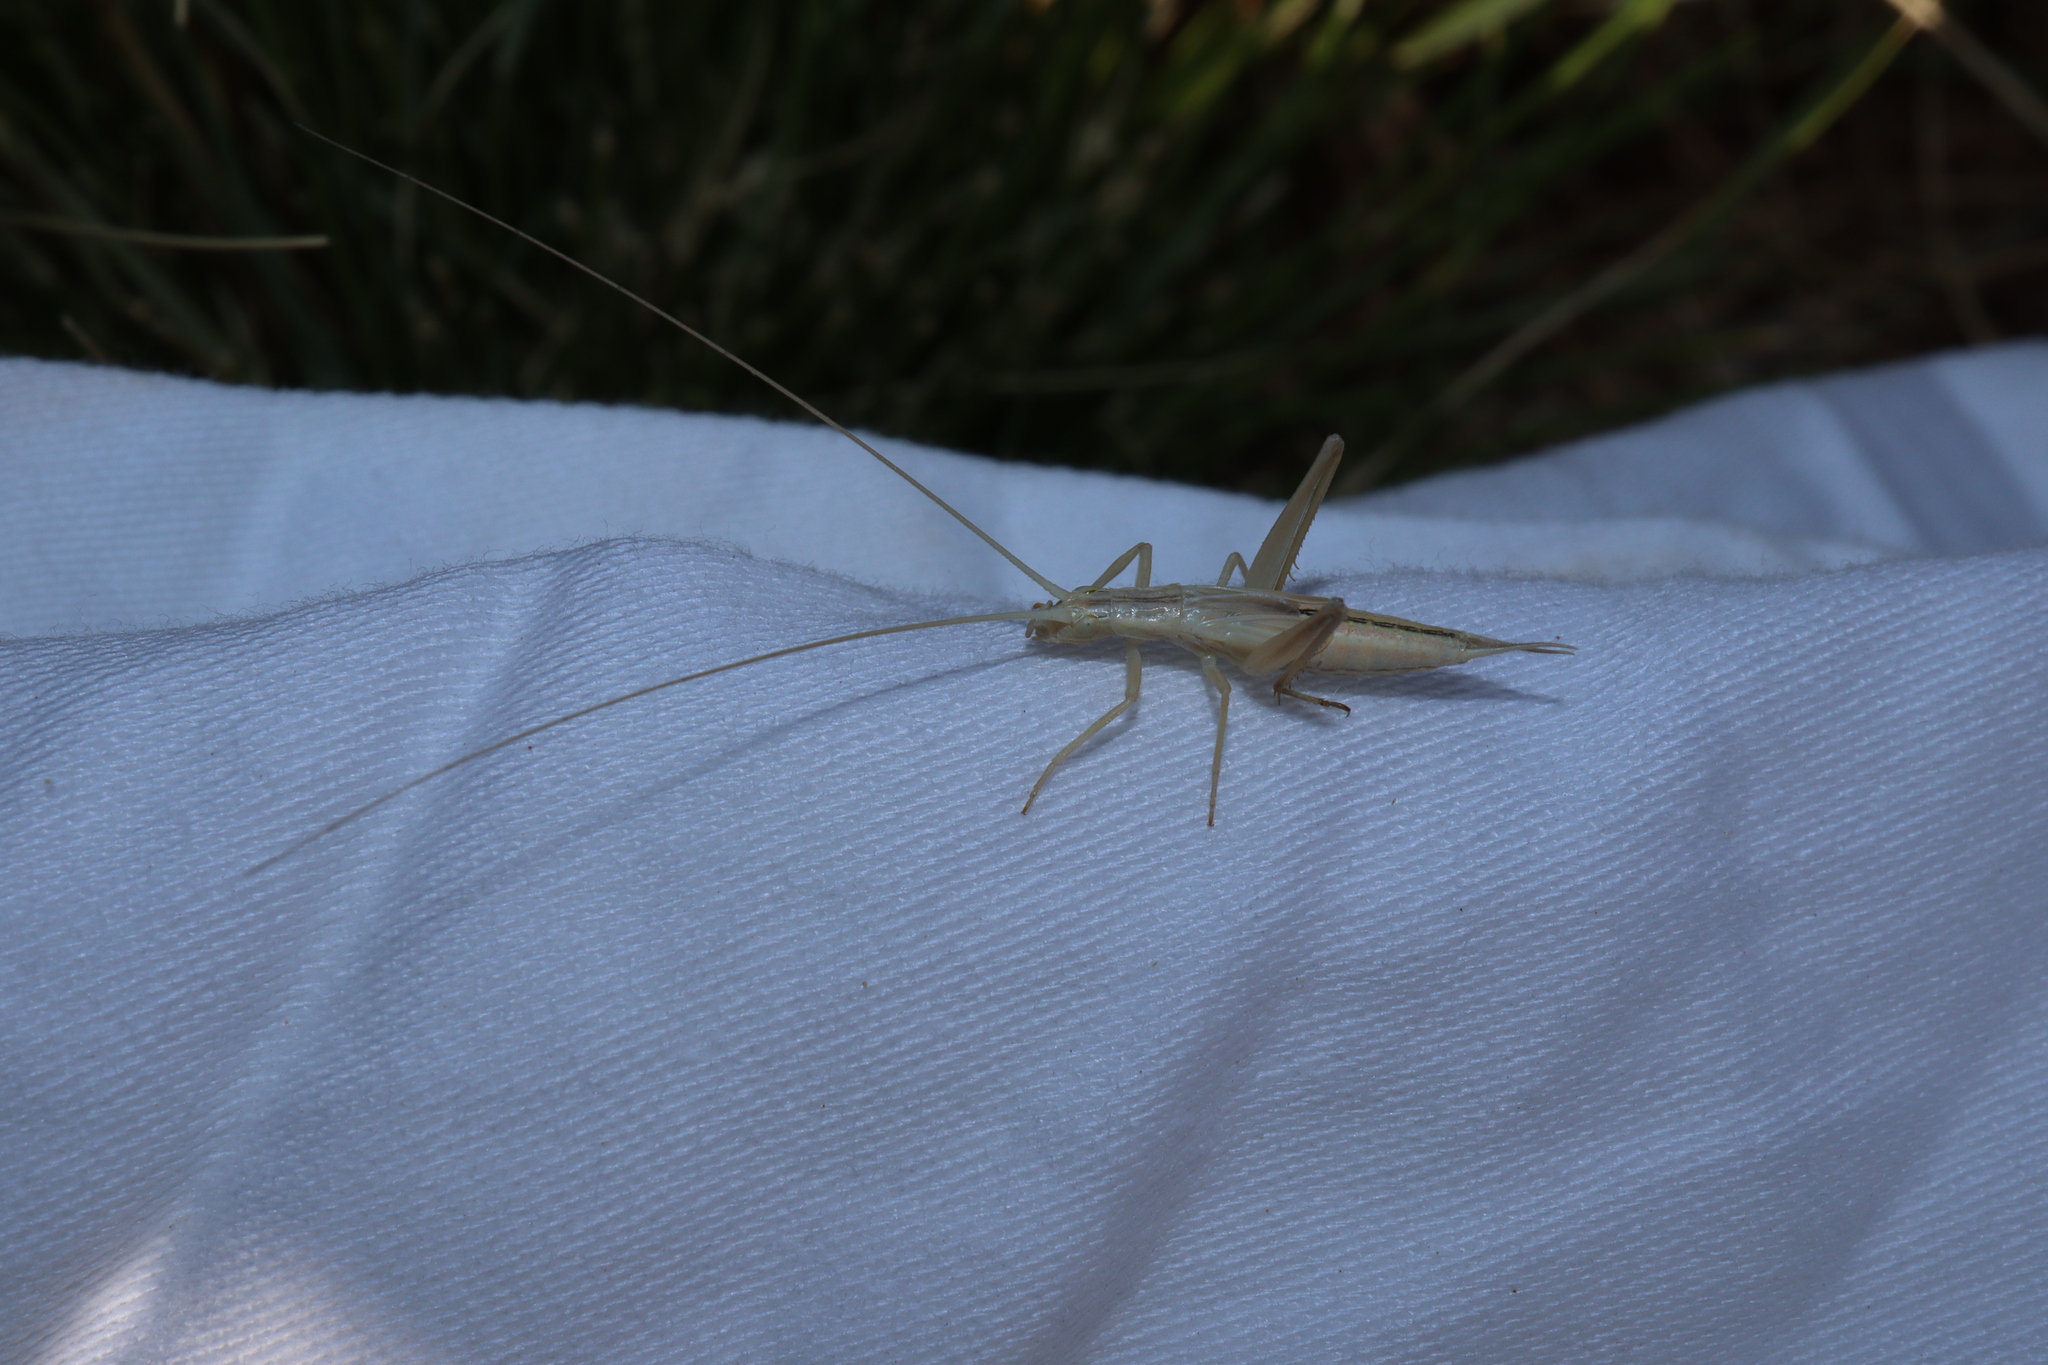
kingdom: Animalia
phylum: Arthropoda
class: Insecta
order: Orthoptera
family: Gryllidae
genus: Oecanthus
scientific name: Oecanthus rufescens
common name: Striped tree cricket
